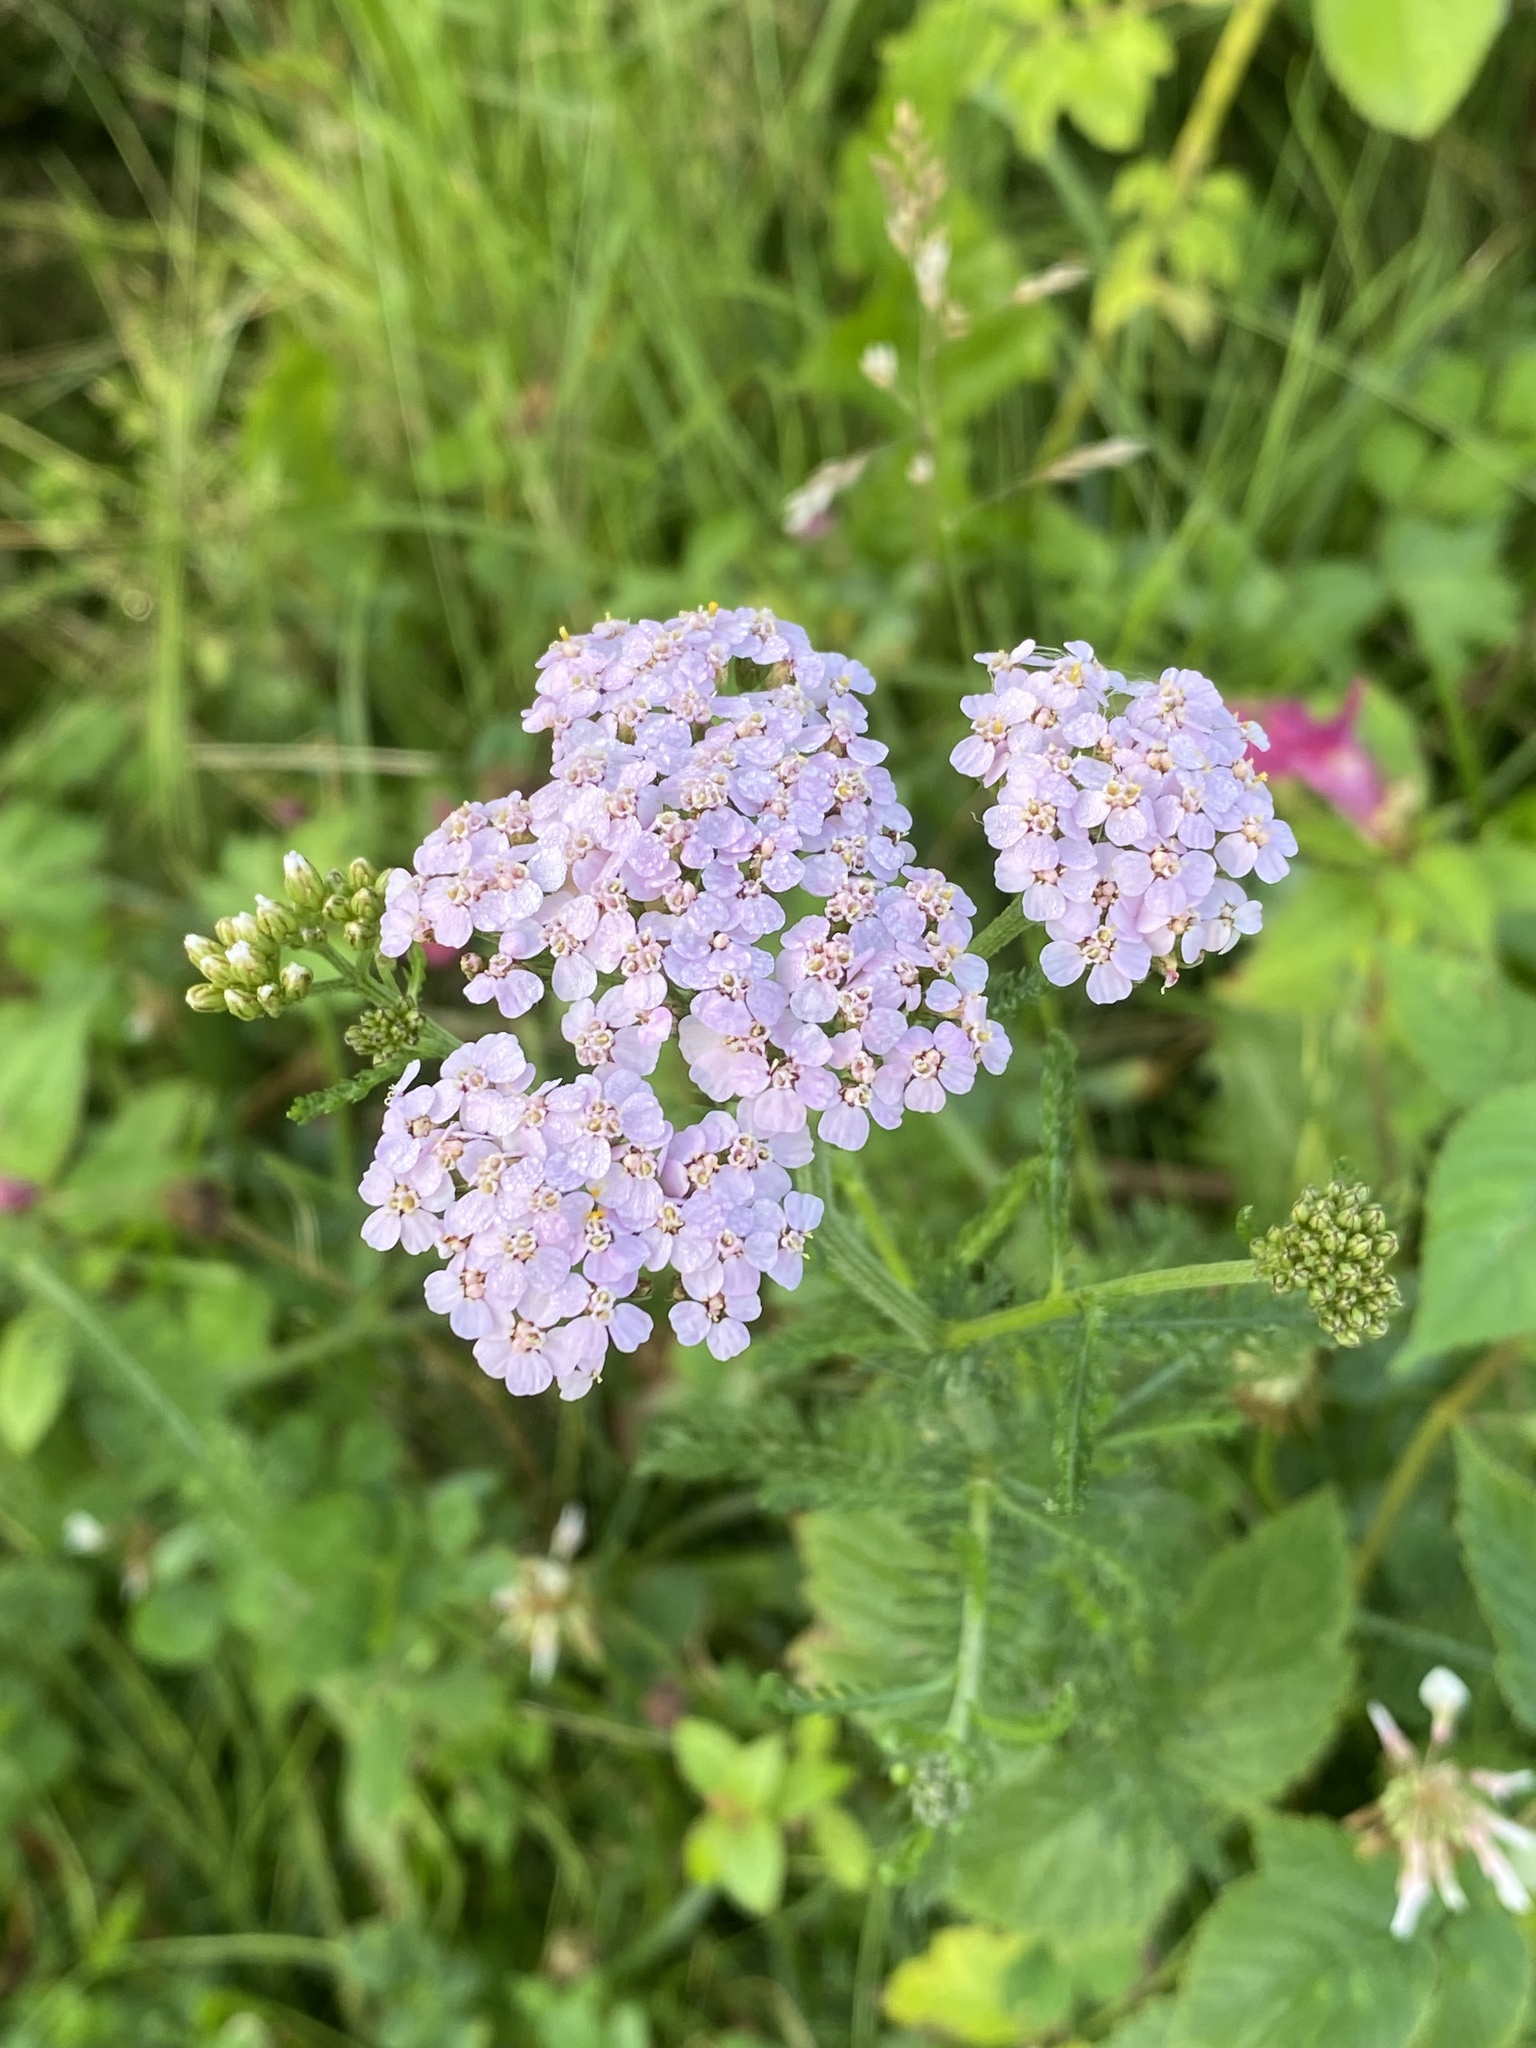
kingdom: Plantae
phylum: Tracheophyta
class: Magnoliopsida
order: Asterales
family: Asteraceae
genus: Achillea
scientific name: Achillea millefolium
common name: Yarrow
